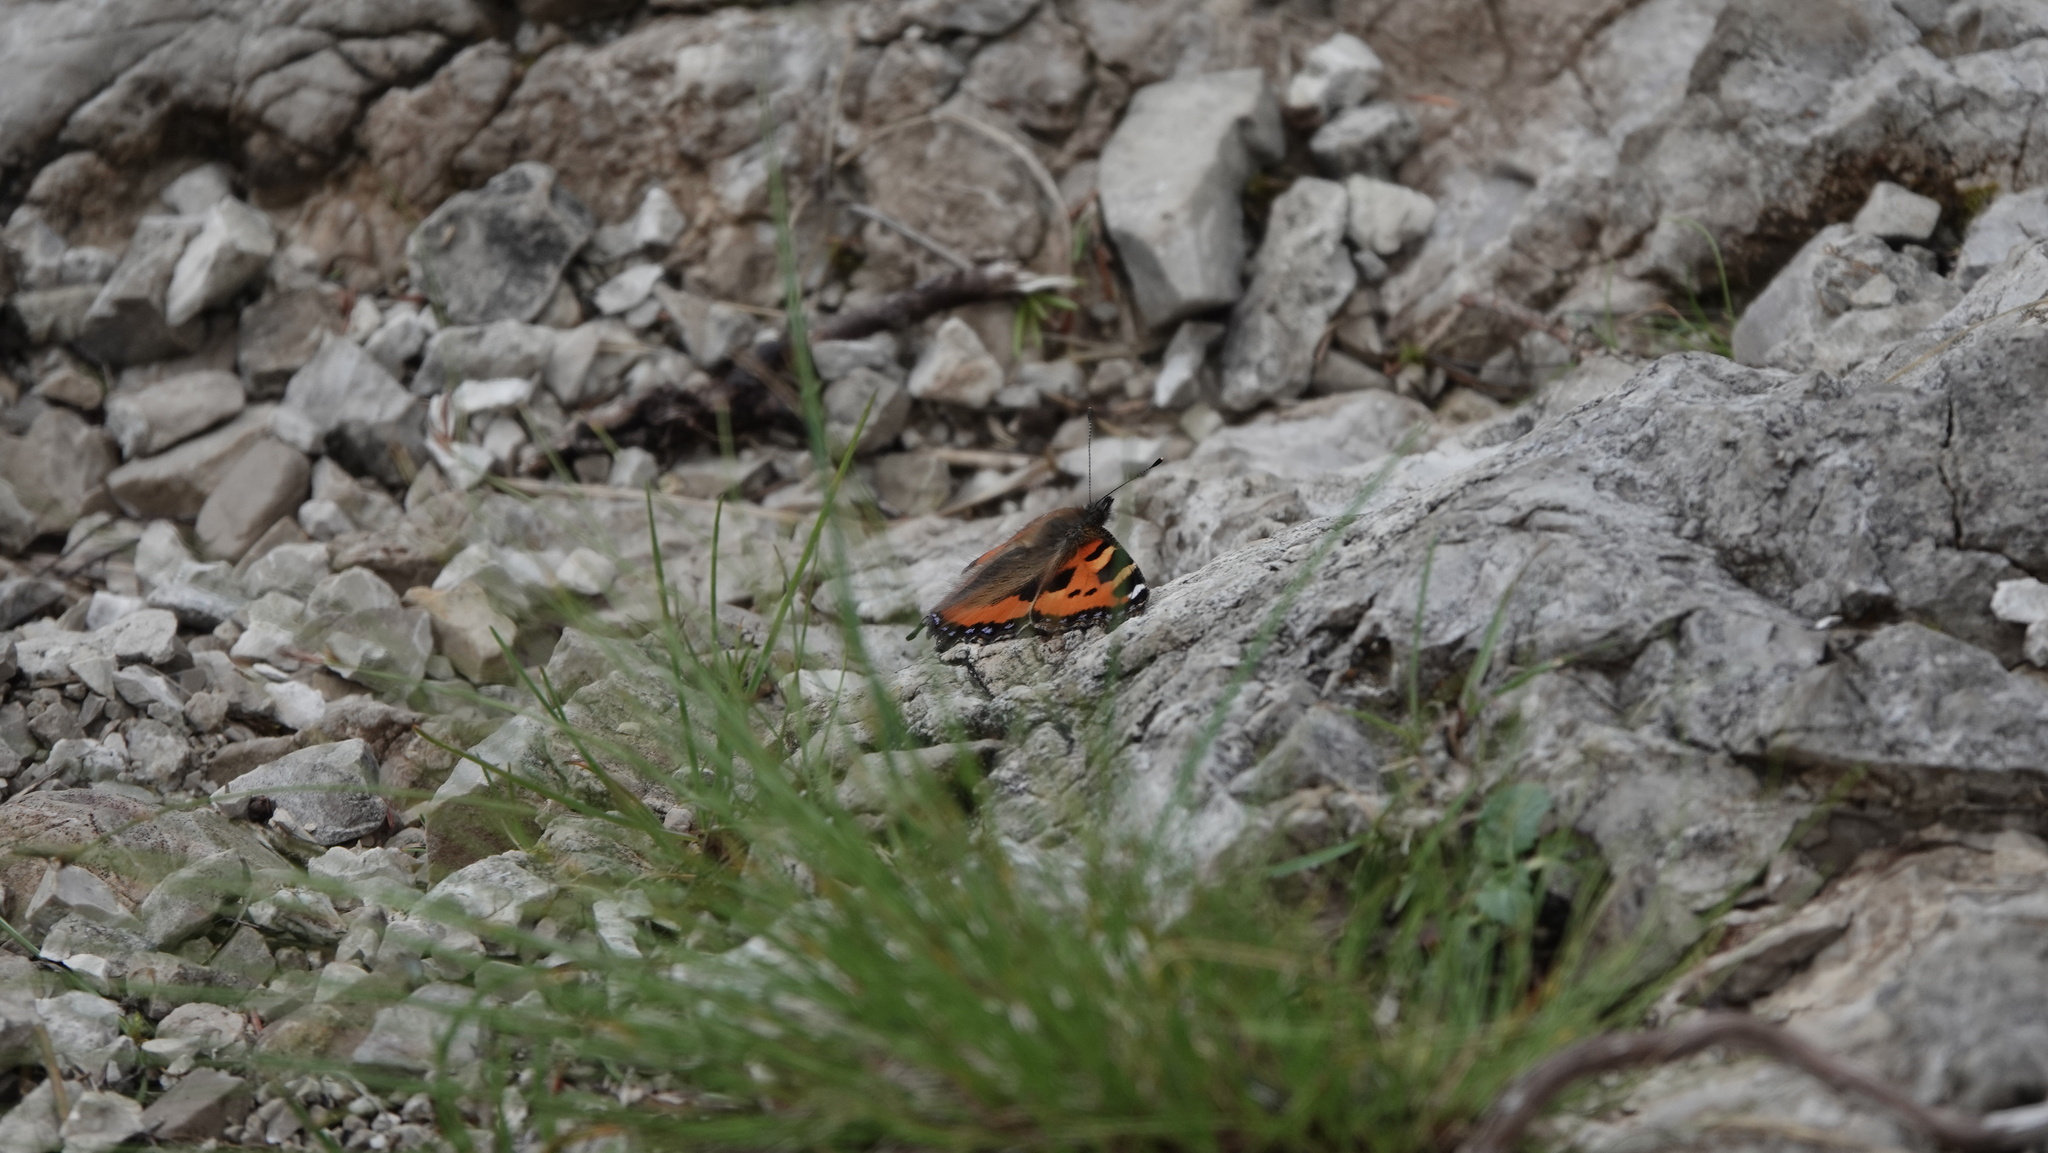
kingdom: Animalia
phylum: Arthropoda
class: Insecta
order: Lepidoptera
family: Nymphalidae
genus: Aglais
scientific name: Aglais urticae
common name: Small tortoiseshell
